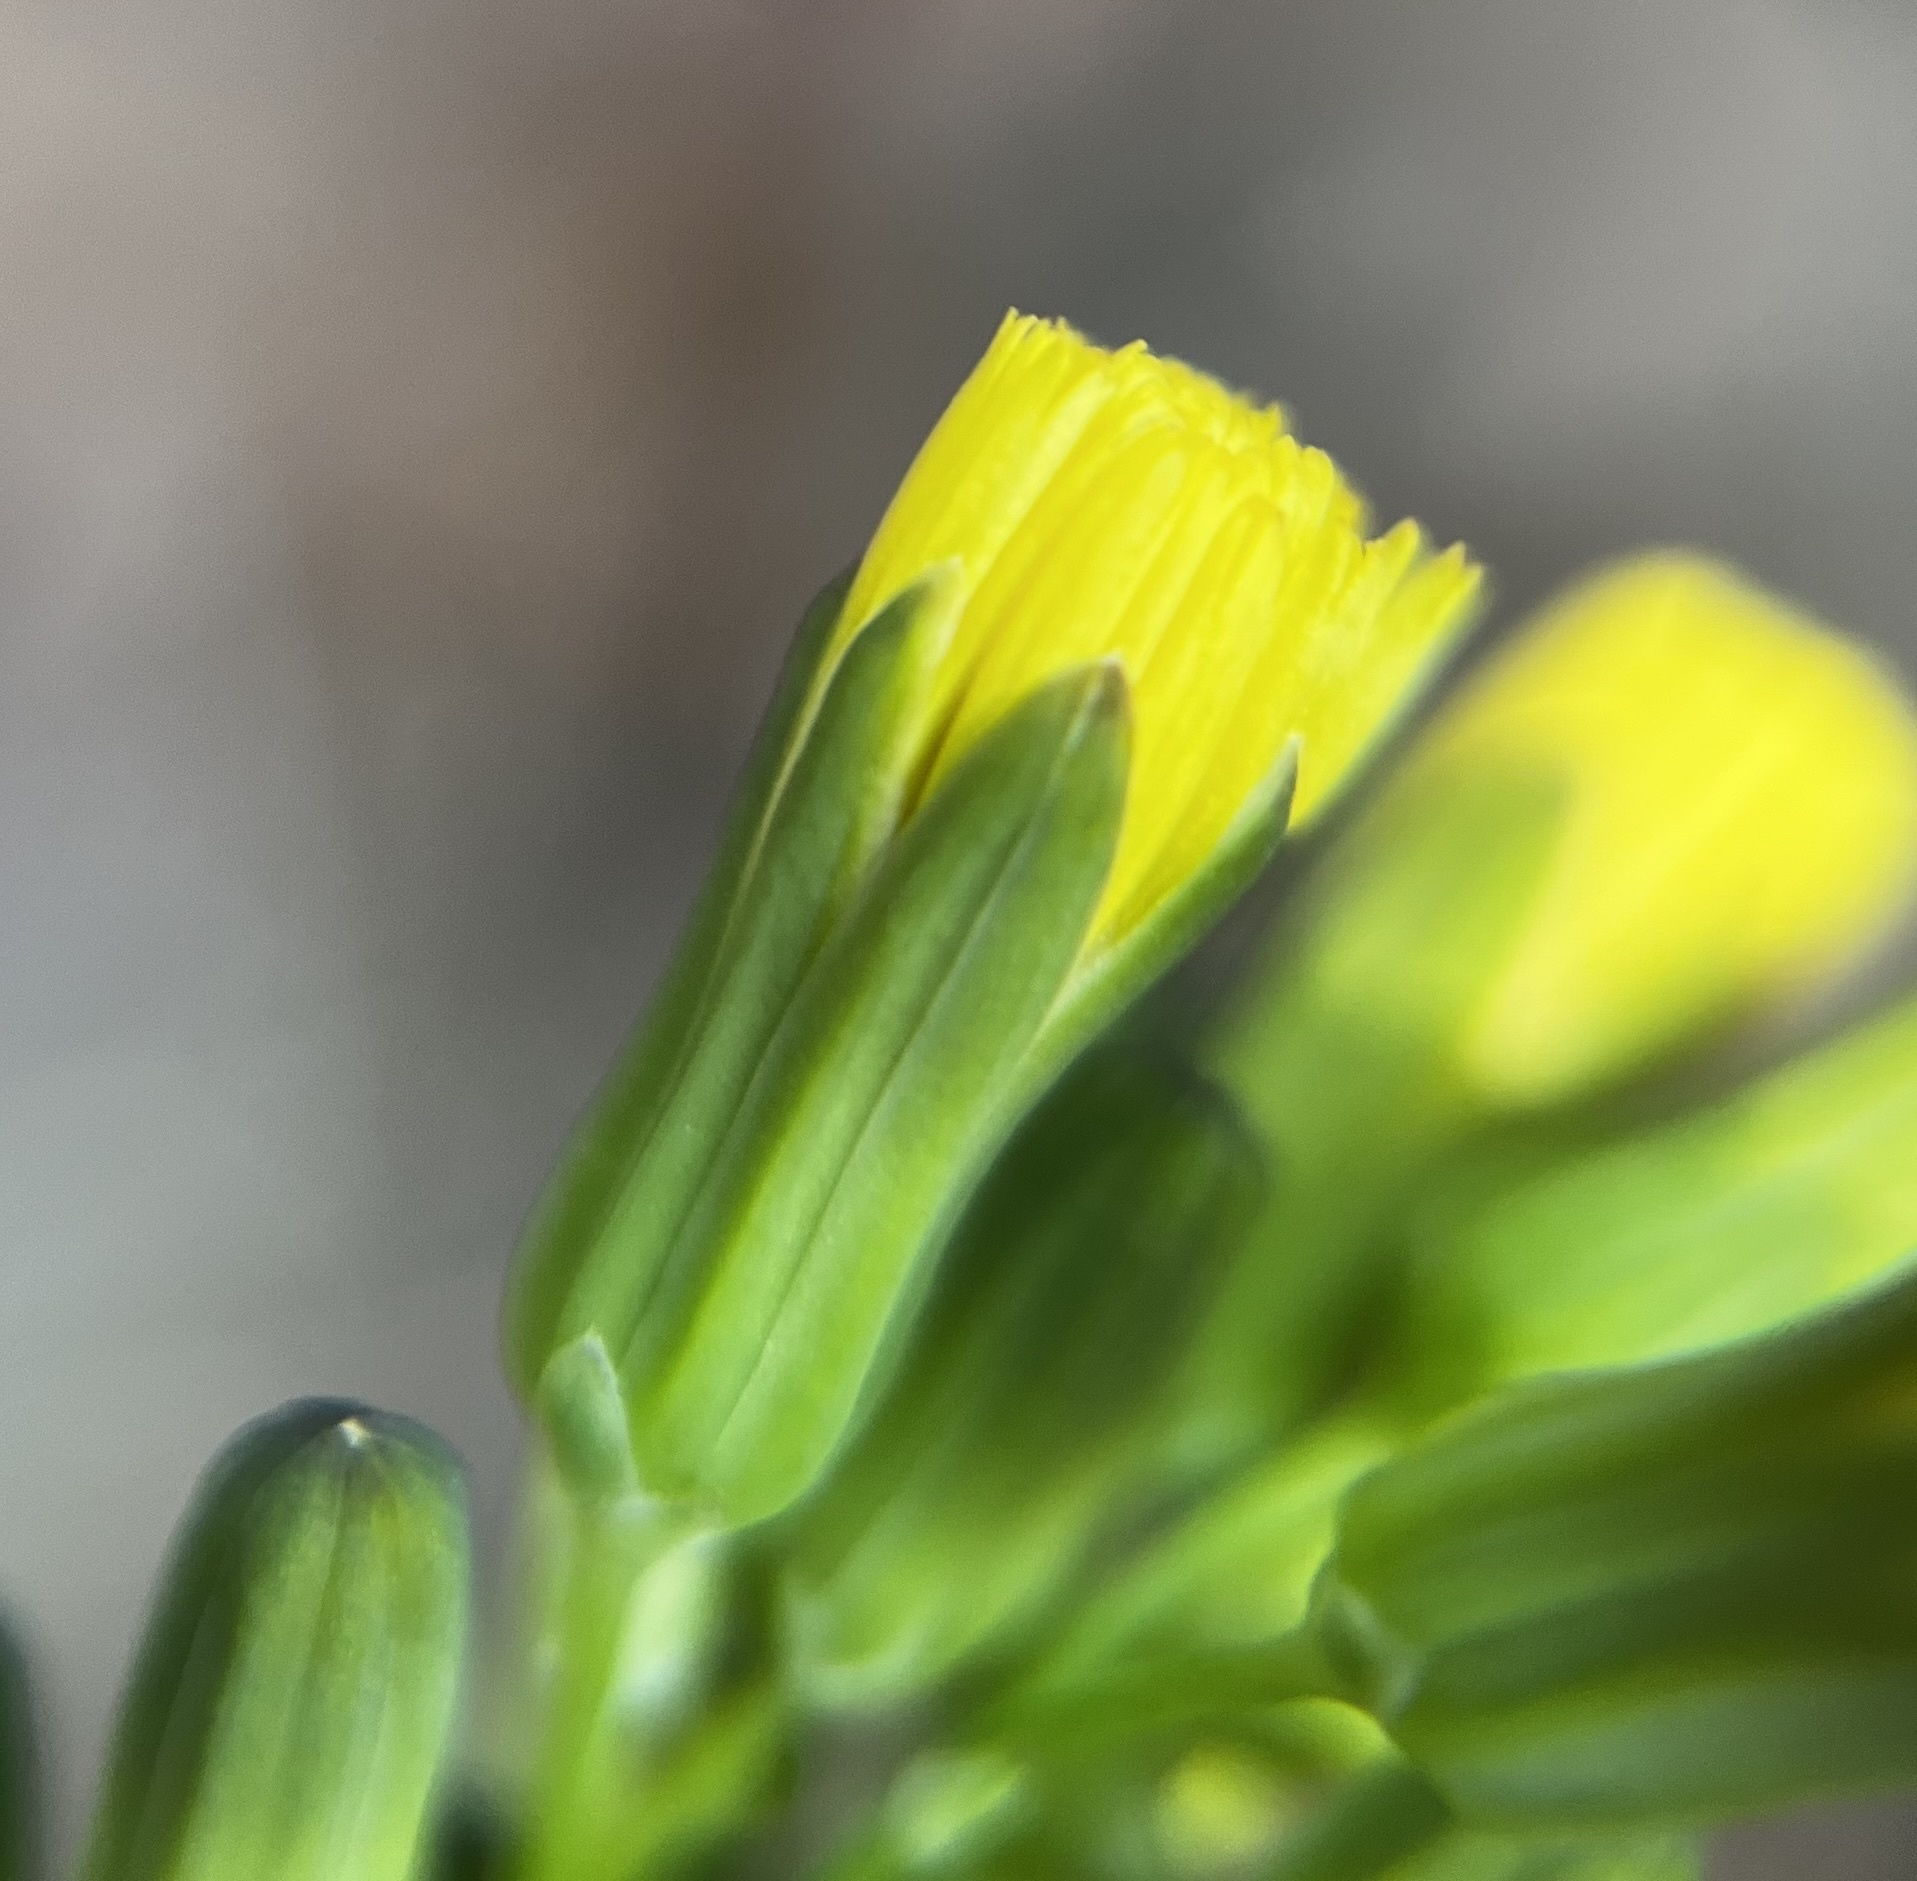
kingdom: Plantae
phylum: Tracheophyta
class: Magnoliopsida
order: Asterales
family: Asteraceae
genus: Youngia
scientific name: Youngia japonica
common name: Oriental false hawksbeard
